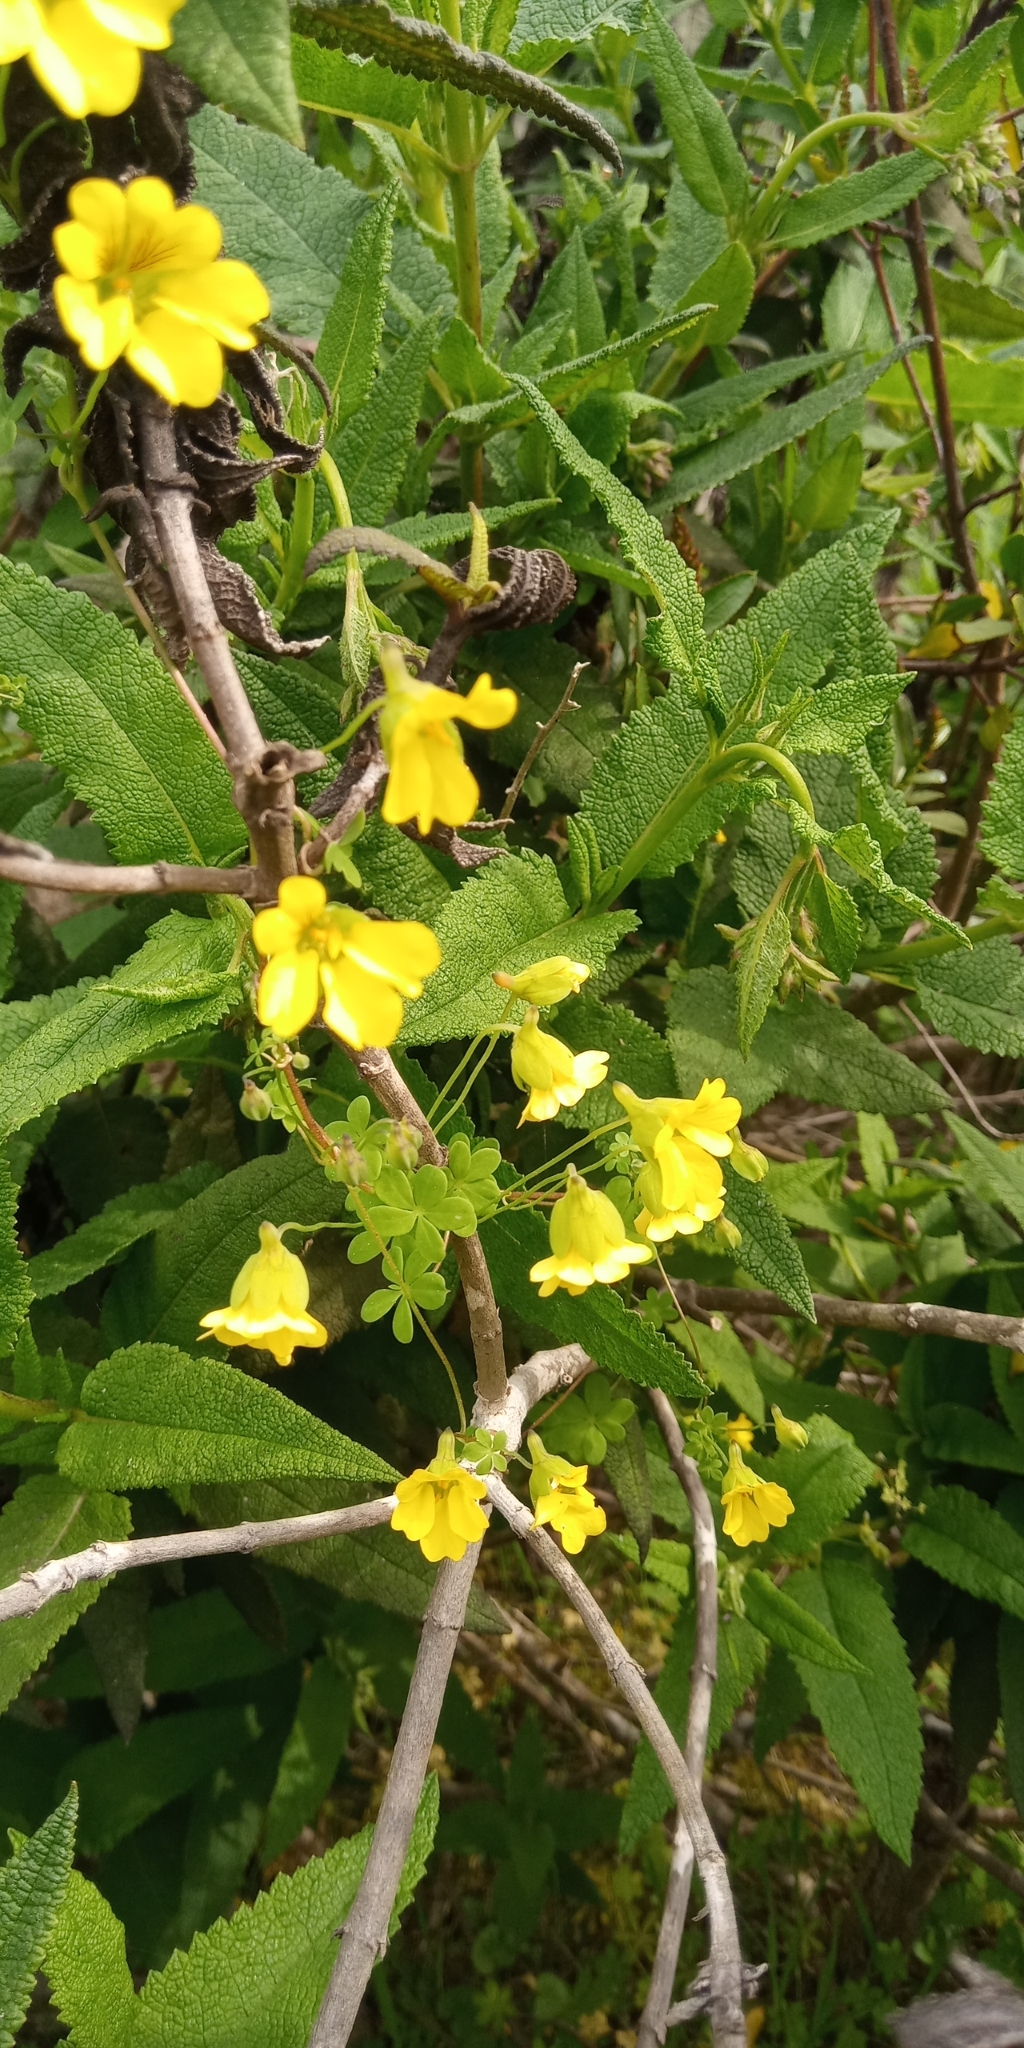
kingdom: Plantae
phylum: Tracheophyta
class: Magnoliopsida
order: Brassicales
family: Tropaeolaceae
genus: Tropaeolum
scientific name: Tropaeolum brachyceras
